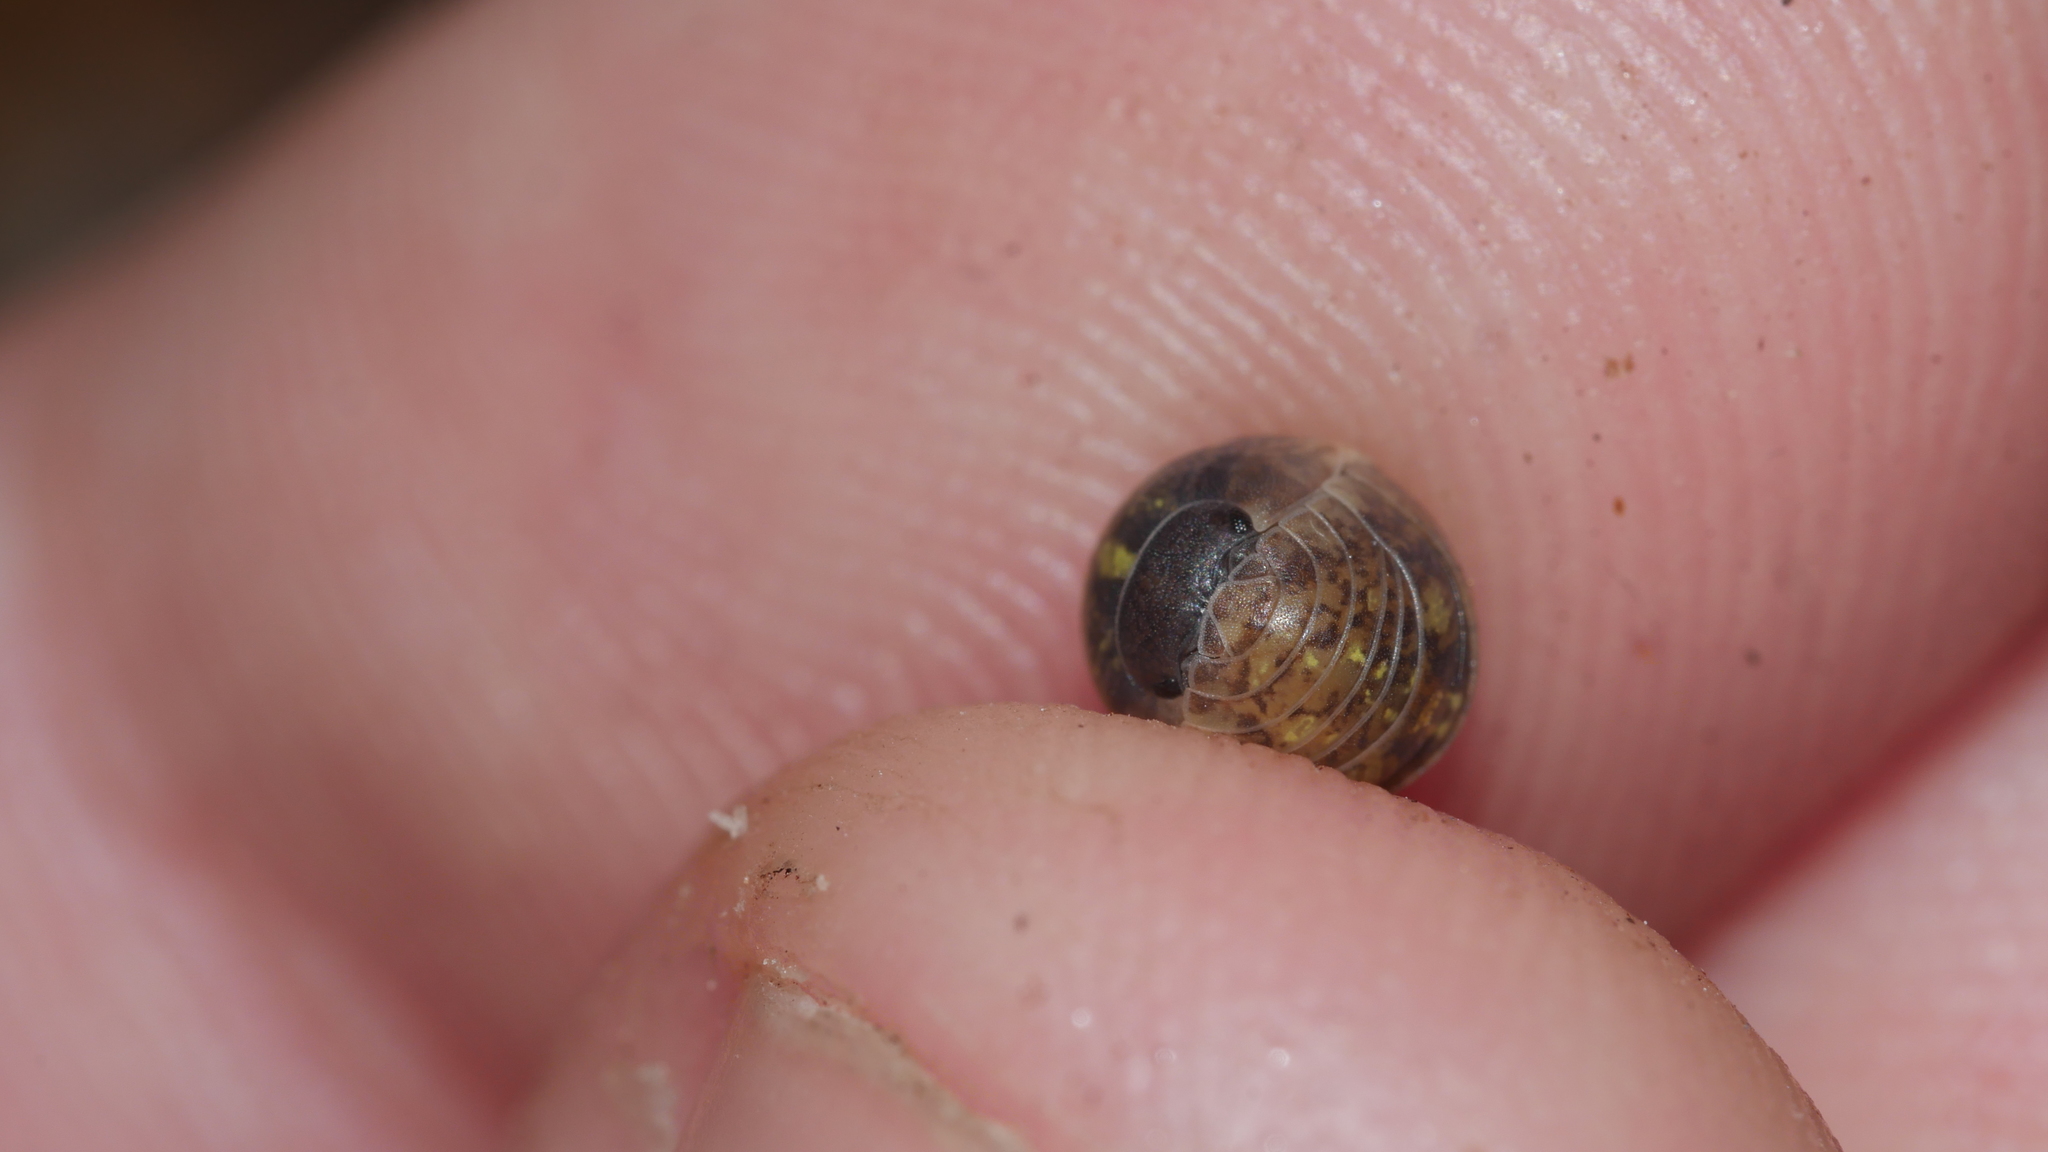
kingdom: Animalia
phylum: Arthropoda
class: Malacostraca
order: Isopoda
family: Armadillidiidae
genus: Armadillidium
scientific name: Armadillidium vulgare
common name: Common pill woodlouse
